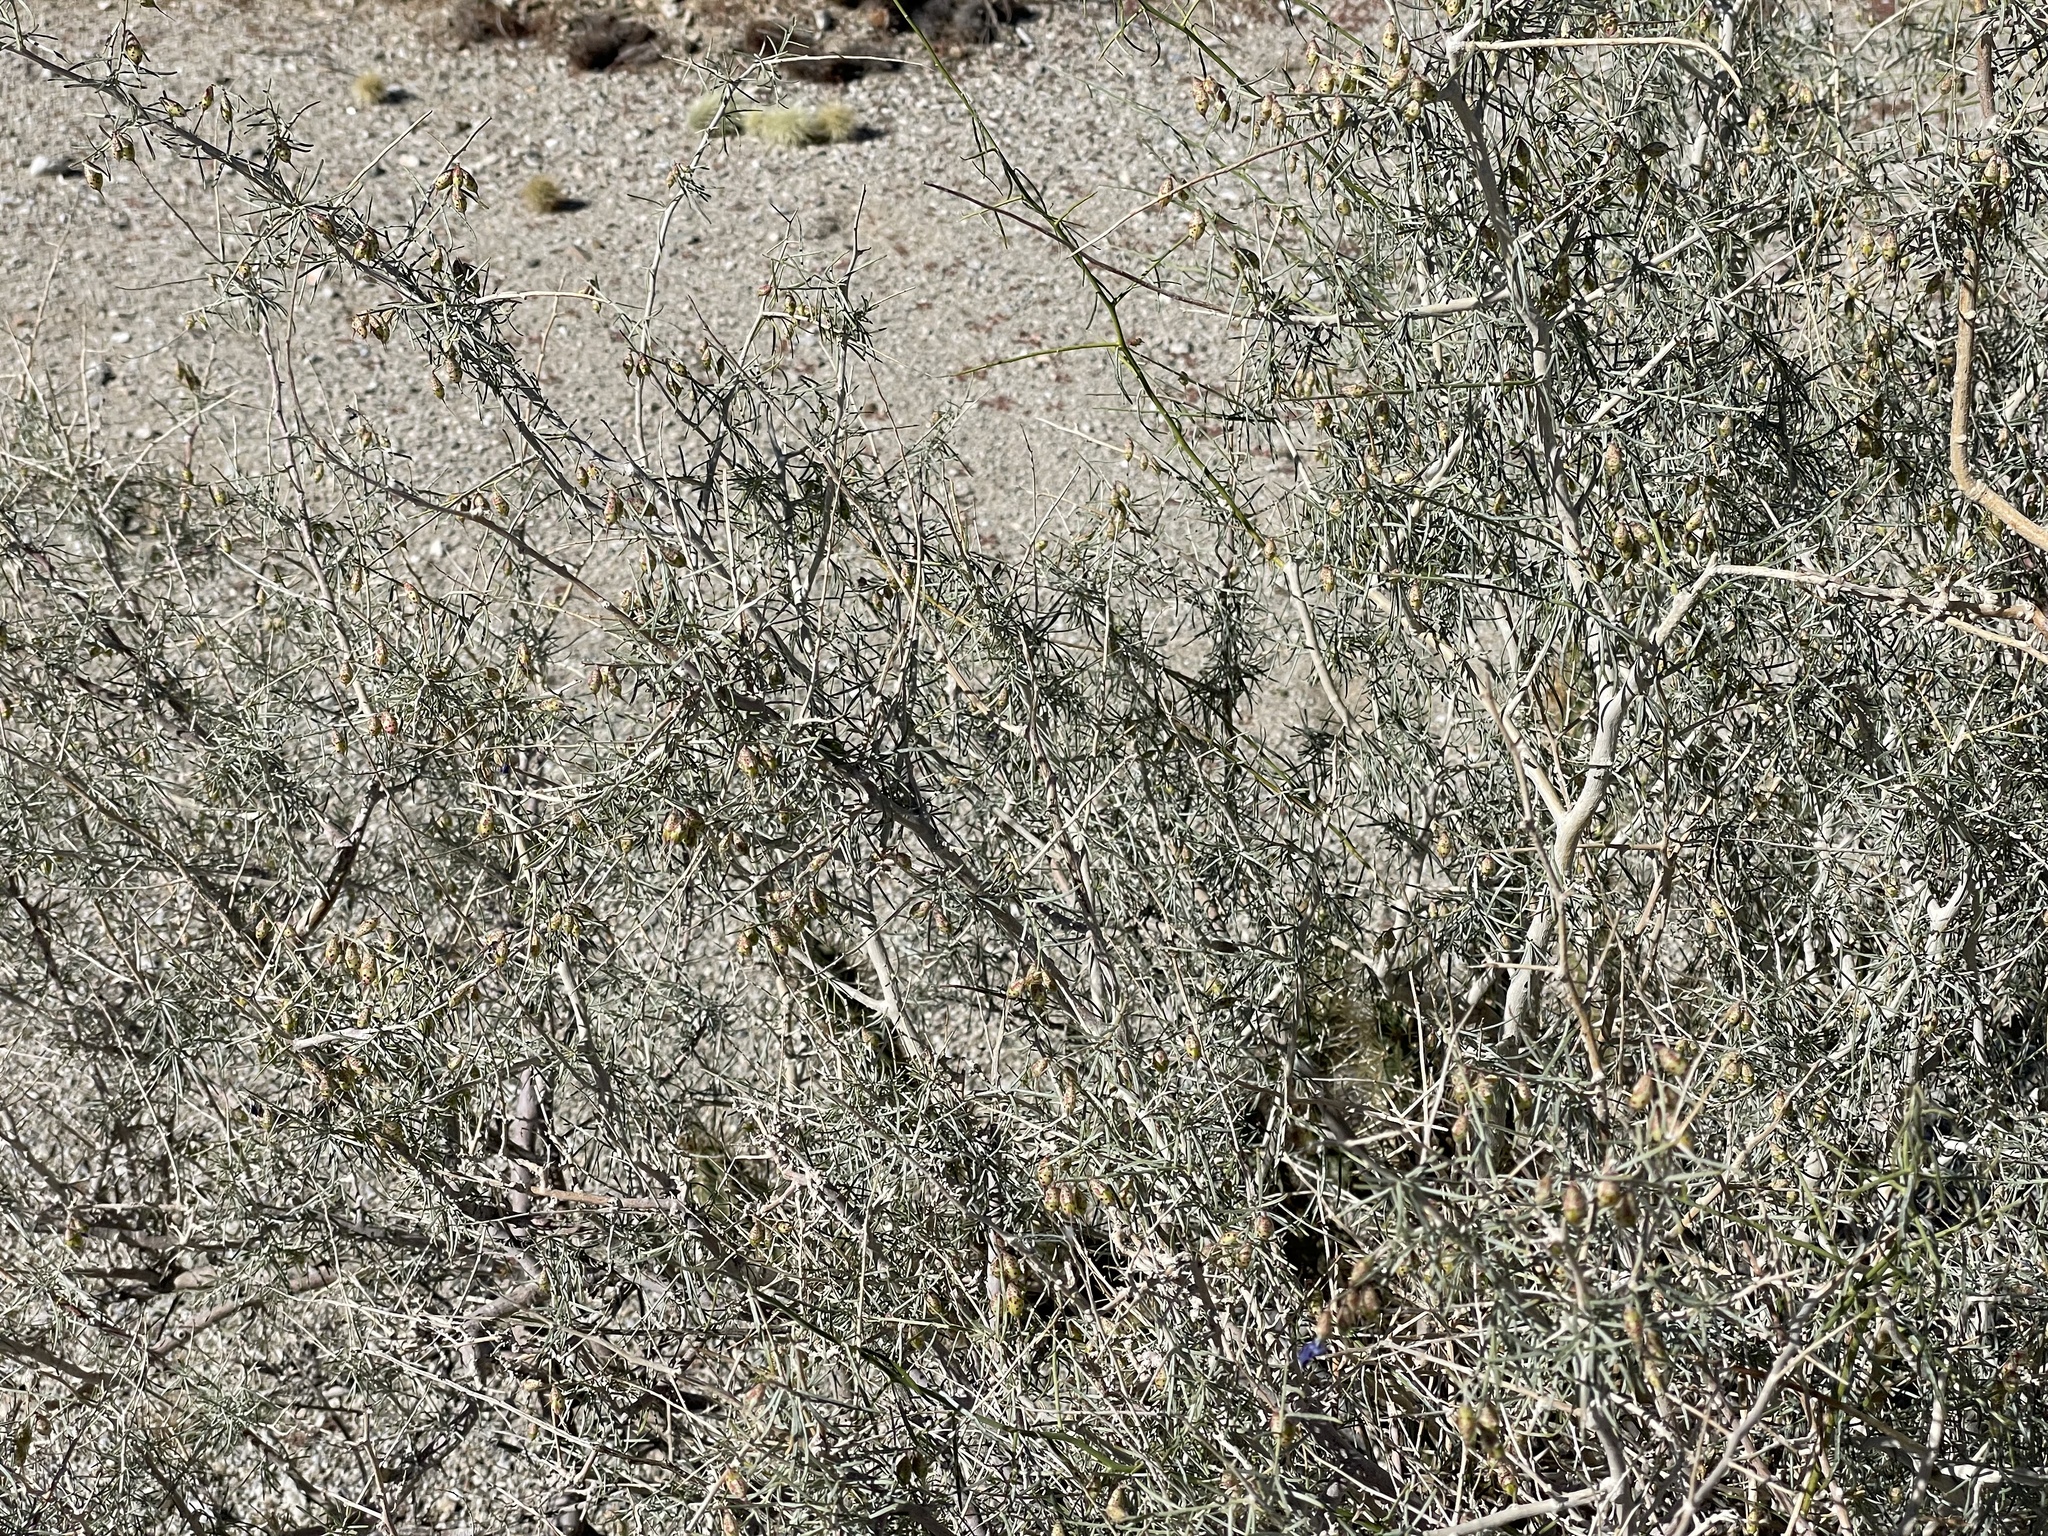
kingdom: Plantae
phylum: Tracheophyta
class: Magnoliopsida
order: Fabales
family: Fabaceae
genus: Psorothamnus
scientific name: Psorothamnus schottii
